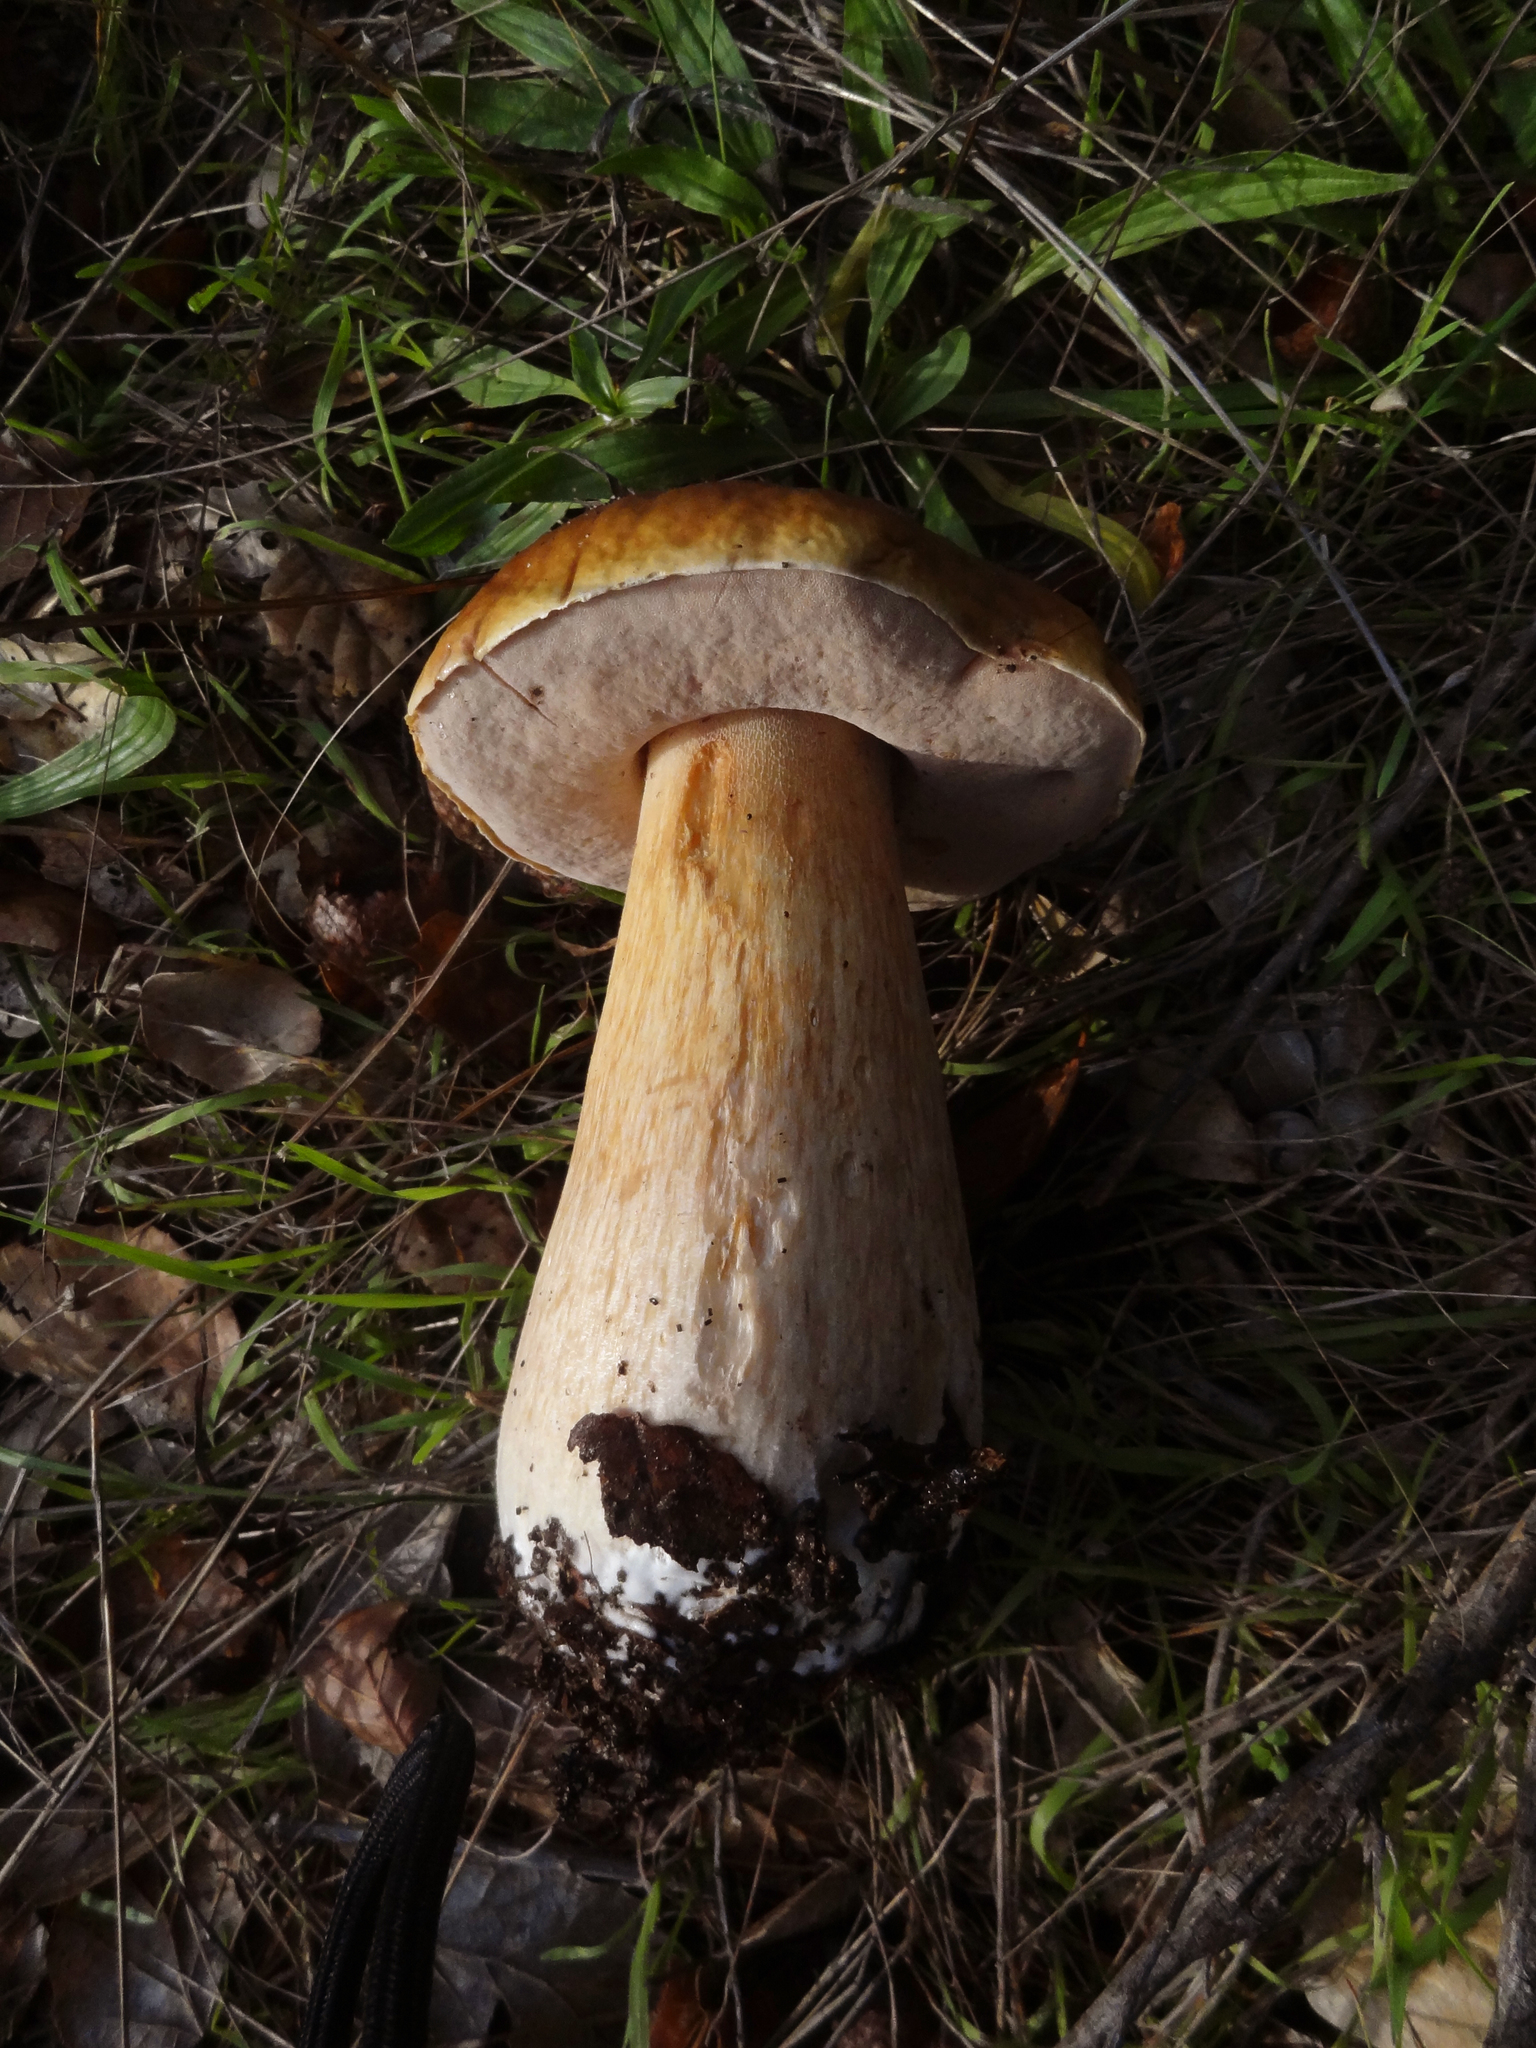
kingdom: Fungi
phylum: Basidiomycota
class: Agaricomycetes
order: Boletales
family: Boletaceae
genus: Boletus
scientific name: Boletus edulis
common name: Cep
